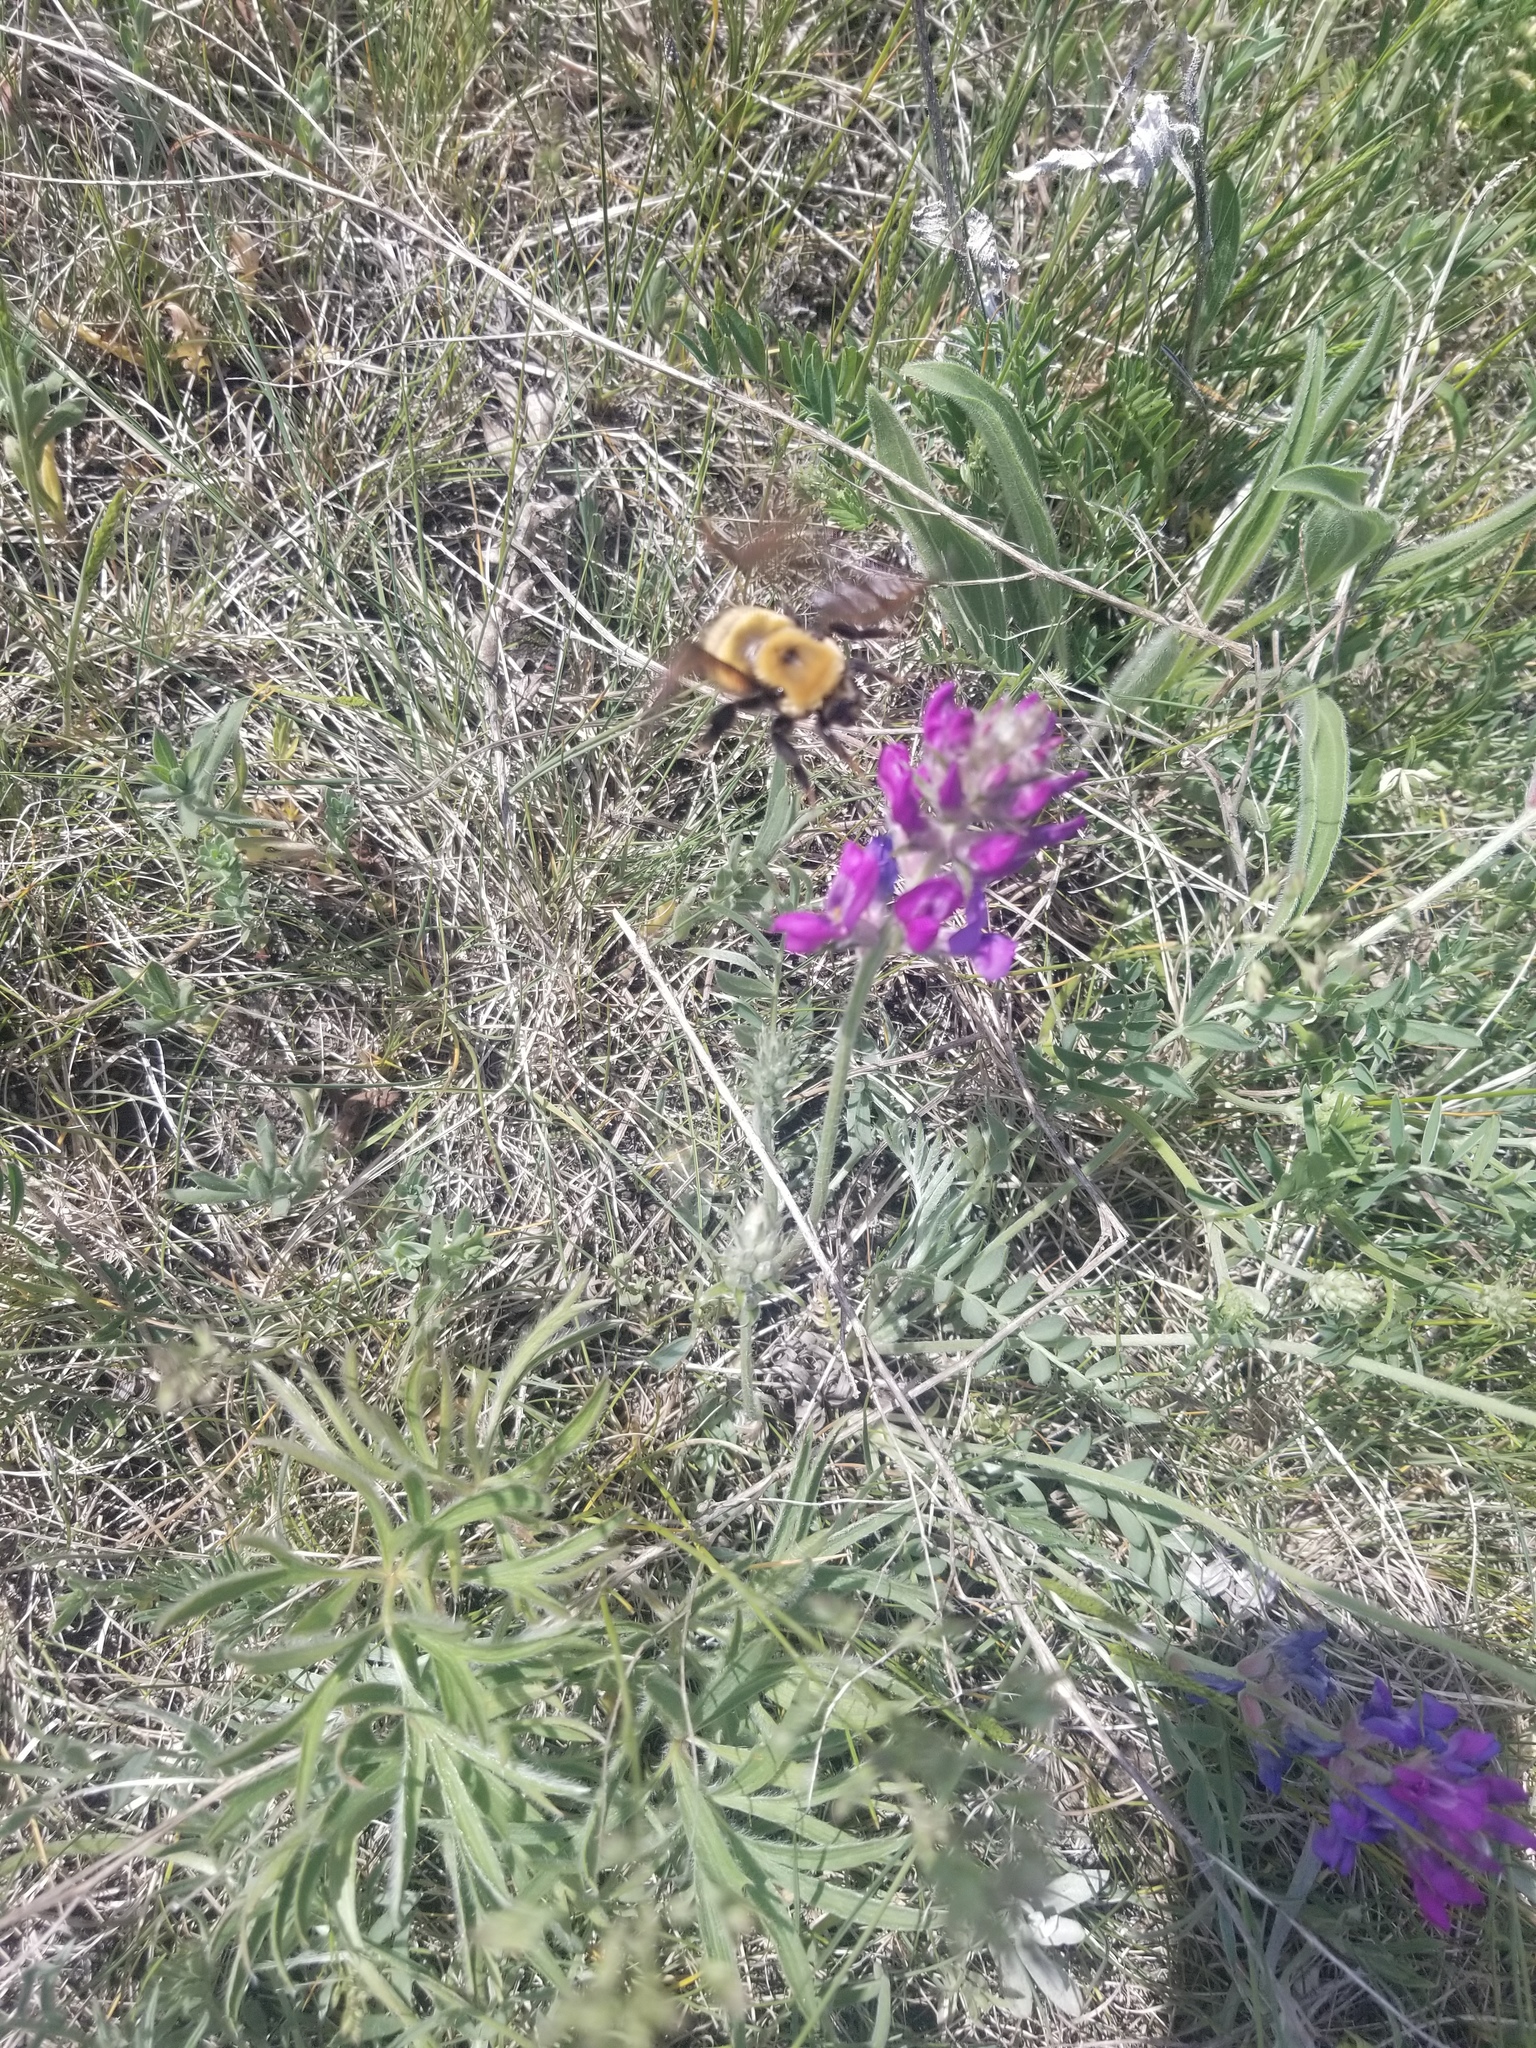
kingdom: Animalia
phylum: Arthropoda
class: Insecta
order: Hymenoptera
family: Apidae
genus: Bombus
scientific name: Bombus nevadensis
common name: Nevada bumble bee
